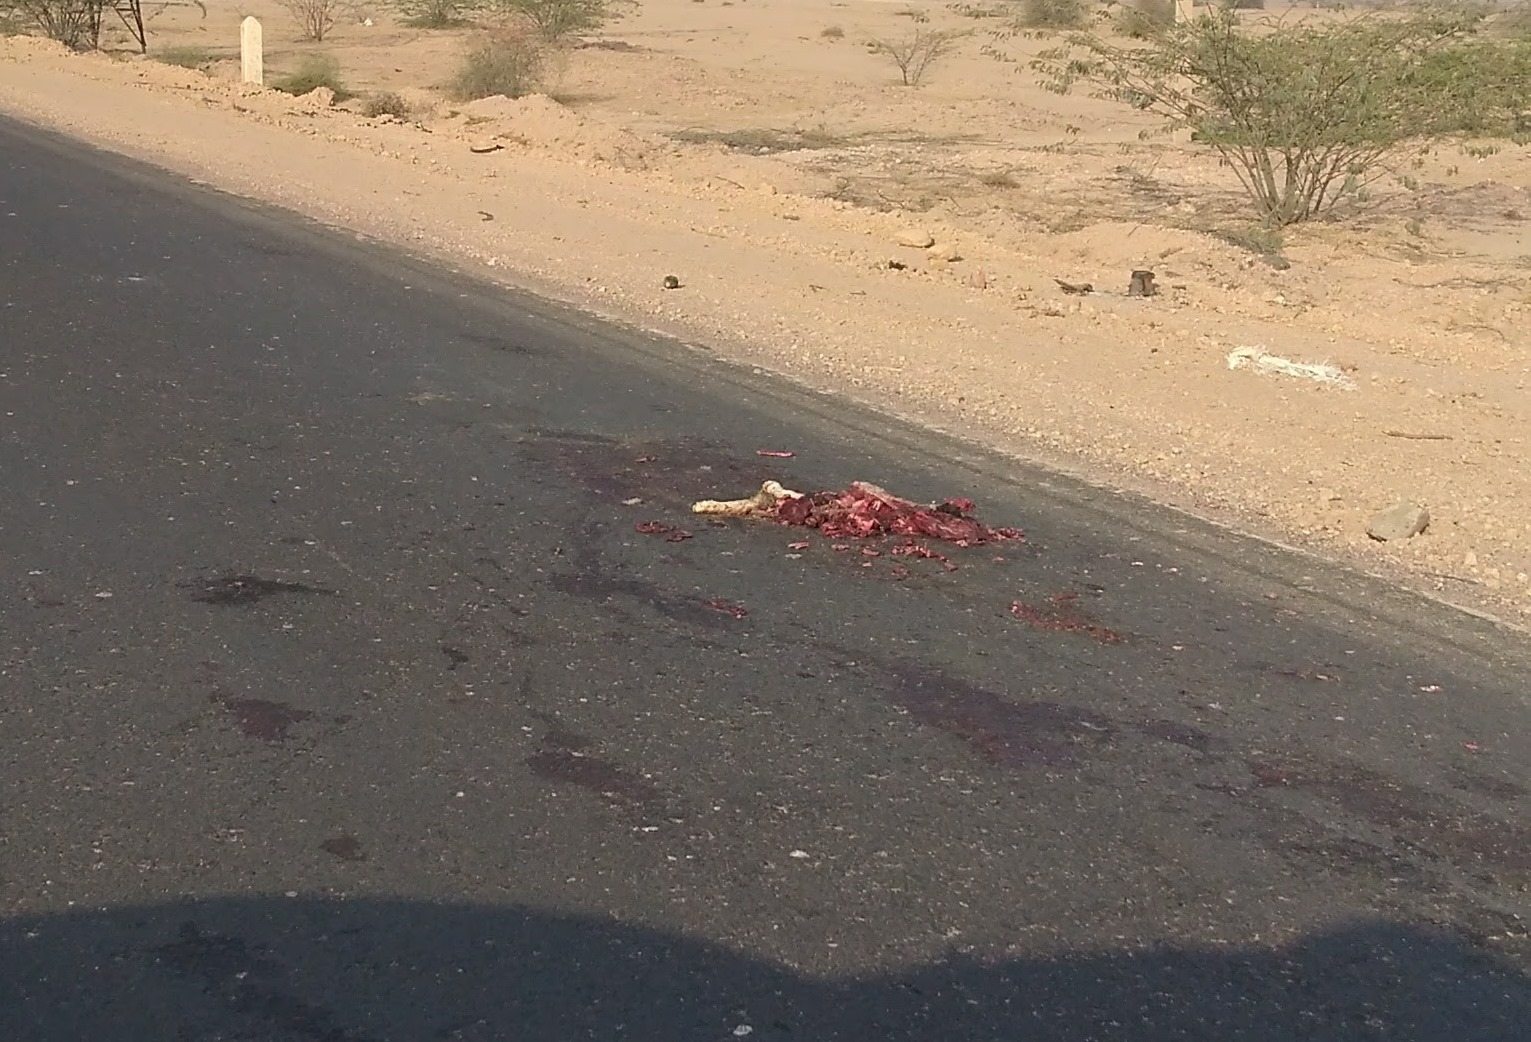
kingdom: Animalia
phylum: Chordata
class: Mammalia
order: Carnivora
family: Canidae
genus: Canis
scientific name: Canis aureus
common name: Golden jackal
